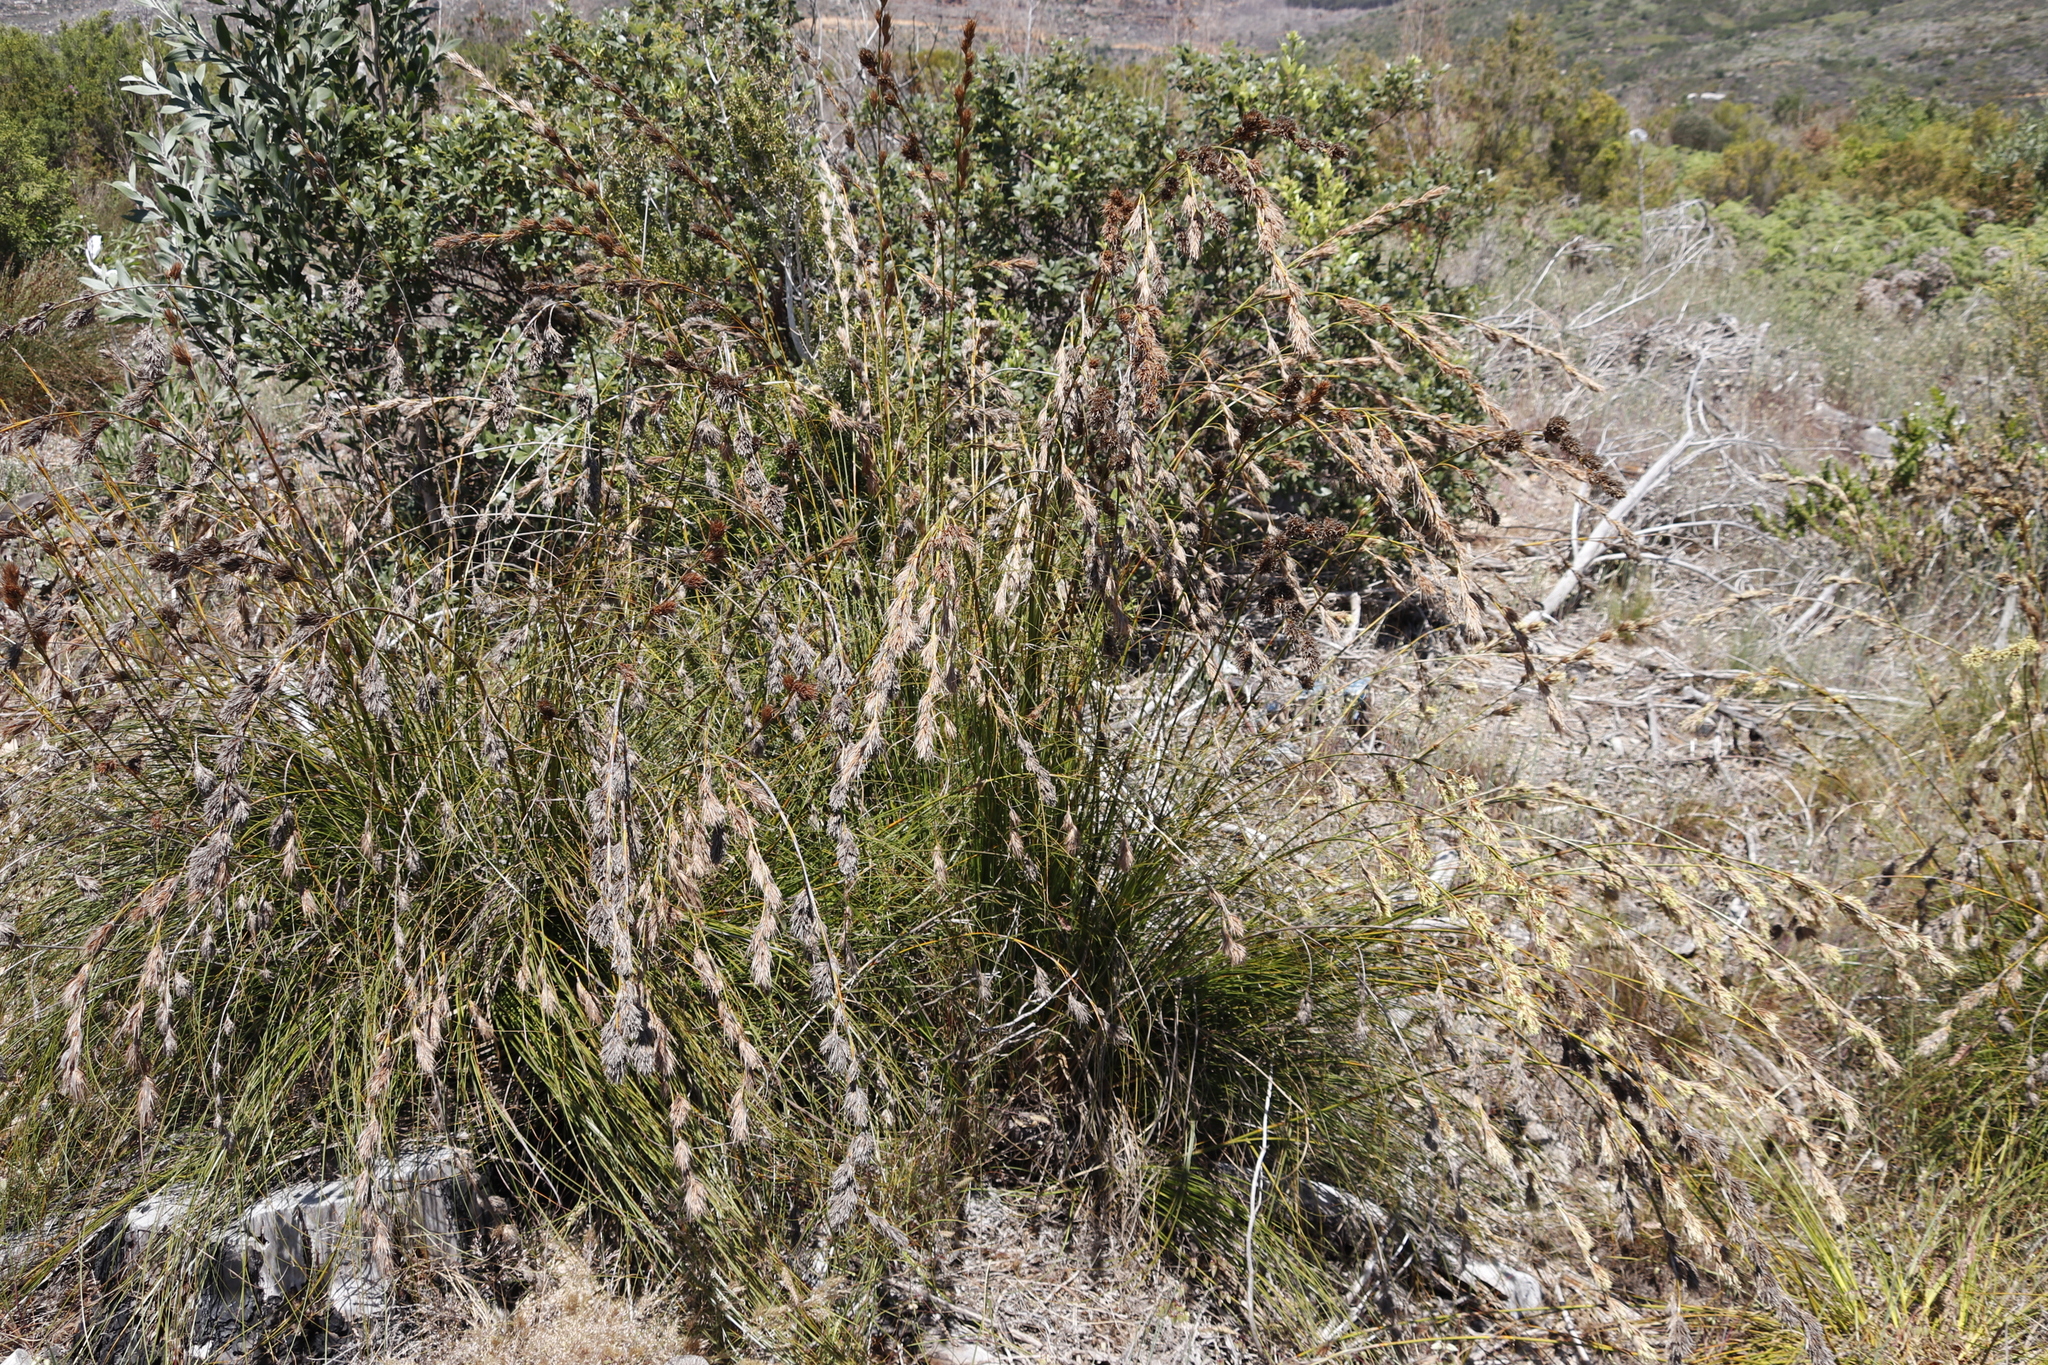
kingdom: Plantae
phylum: Tracheophyta
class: Liliopsida
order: Poales
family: Cyperaceae
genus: Tetraria
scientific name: Tetraria bromoides
